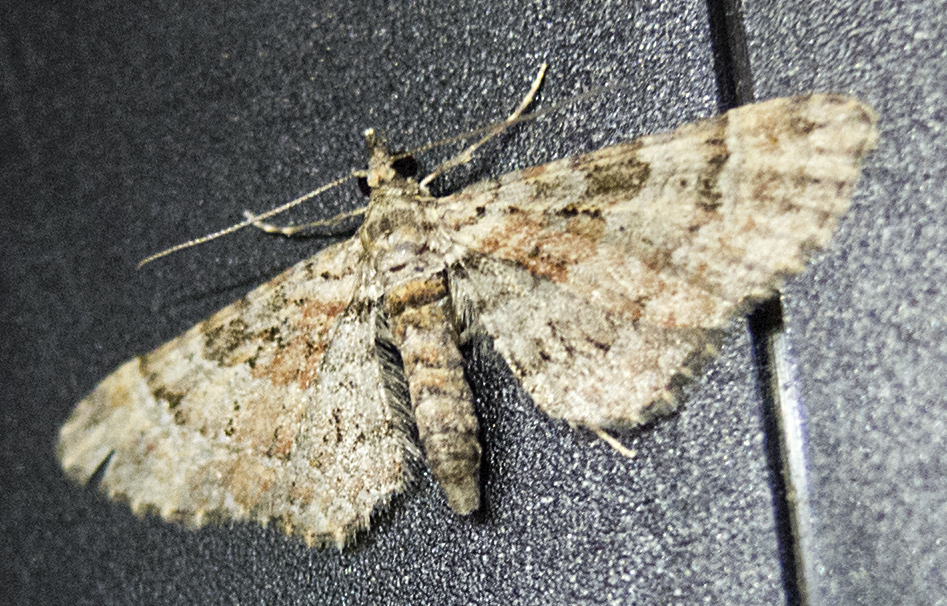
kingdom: Animalia
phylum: Arthropoda
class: Insecta
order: Lepidoptera
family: Geometridae
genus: Gymnoscelis
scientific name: Gymnoscelis rufifasciata
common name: Double-striped pug
